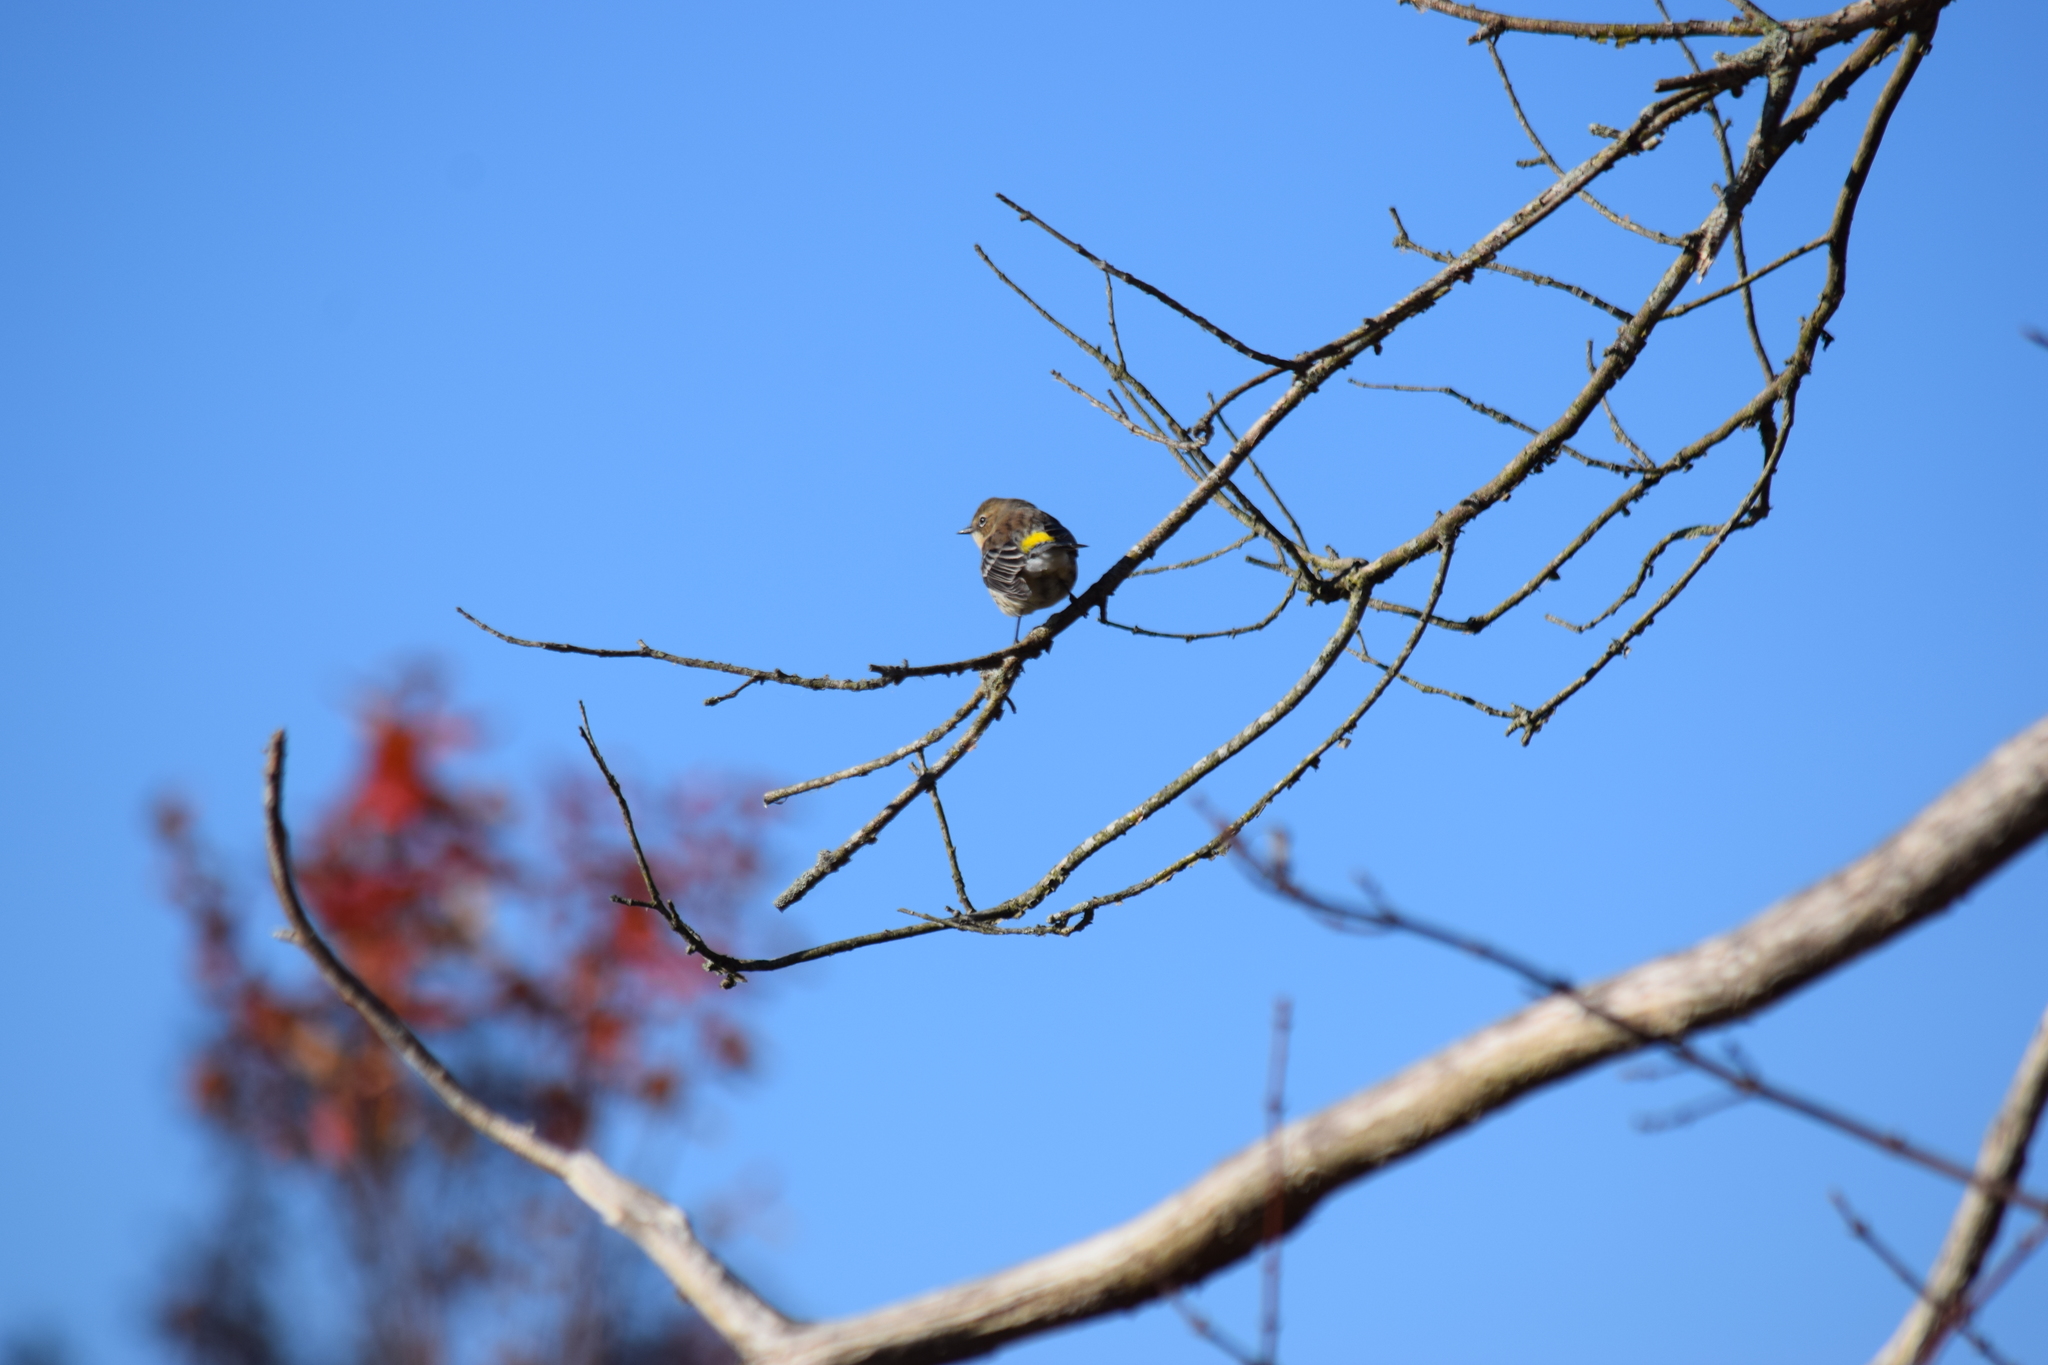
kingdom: Animalia
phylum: Chordata
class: Aves
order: Passeriformes
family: Parulidae
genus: Setophaga
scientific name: Setophaga coronata
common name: Myrtle warbler
